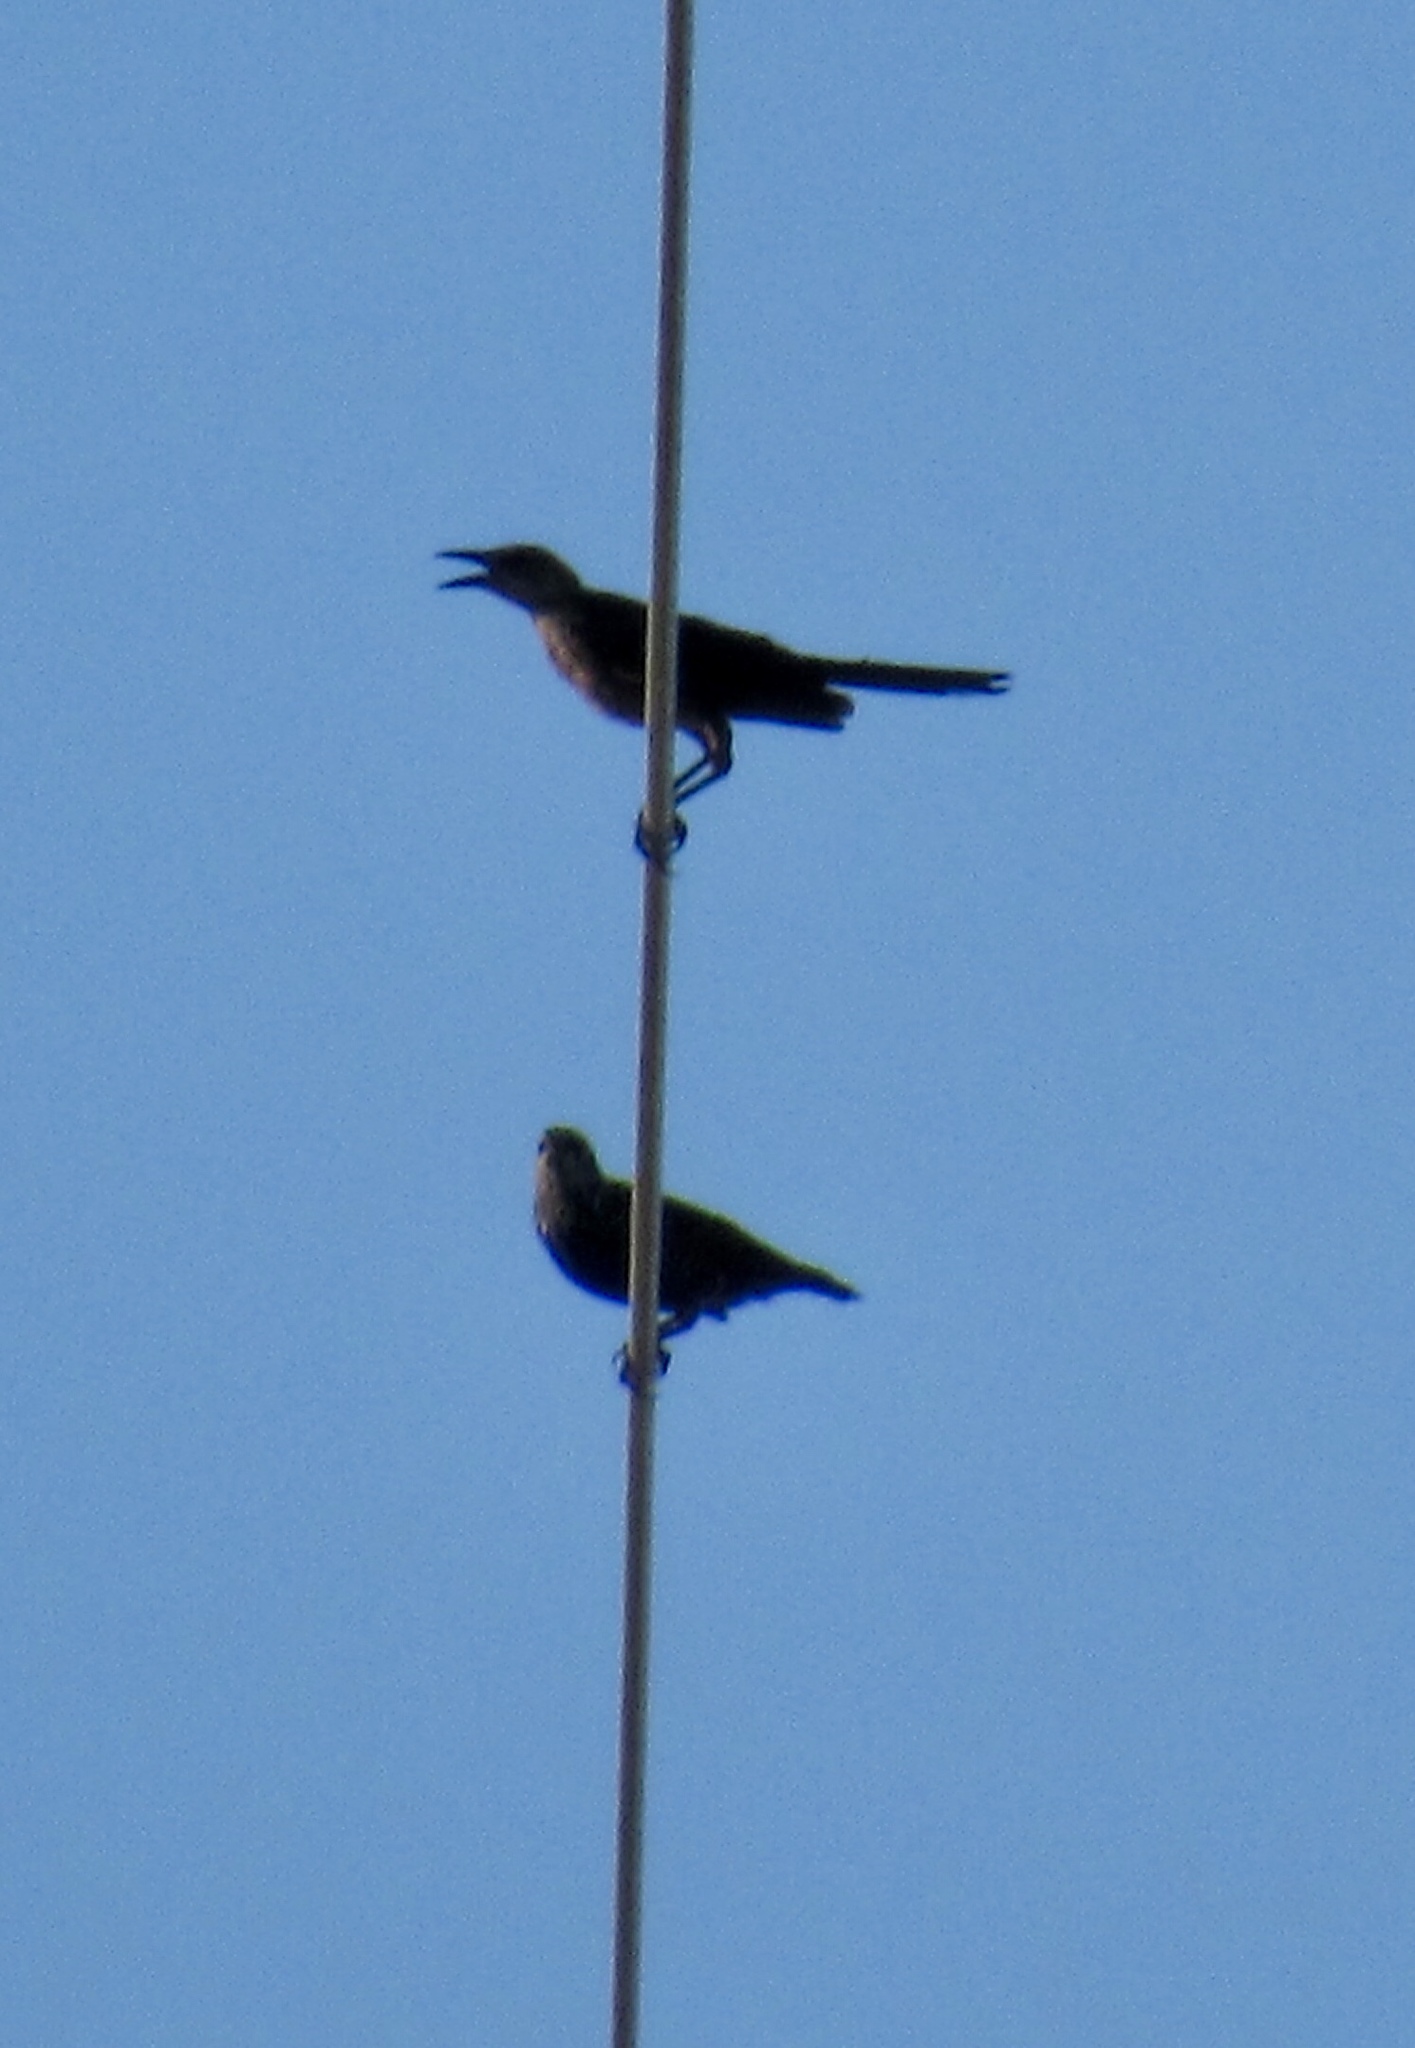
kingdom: Animalia
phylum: Chordata
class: Aves
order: Passeriformes
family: Icteridae
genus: Quiscalus
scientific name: Quiscalus mexicanus
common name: Great-tailed grackle
